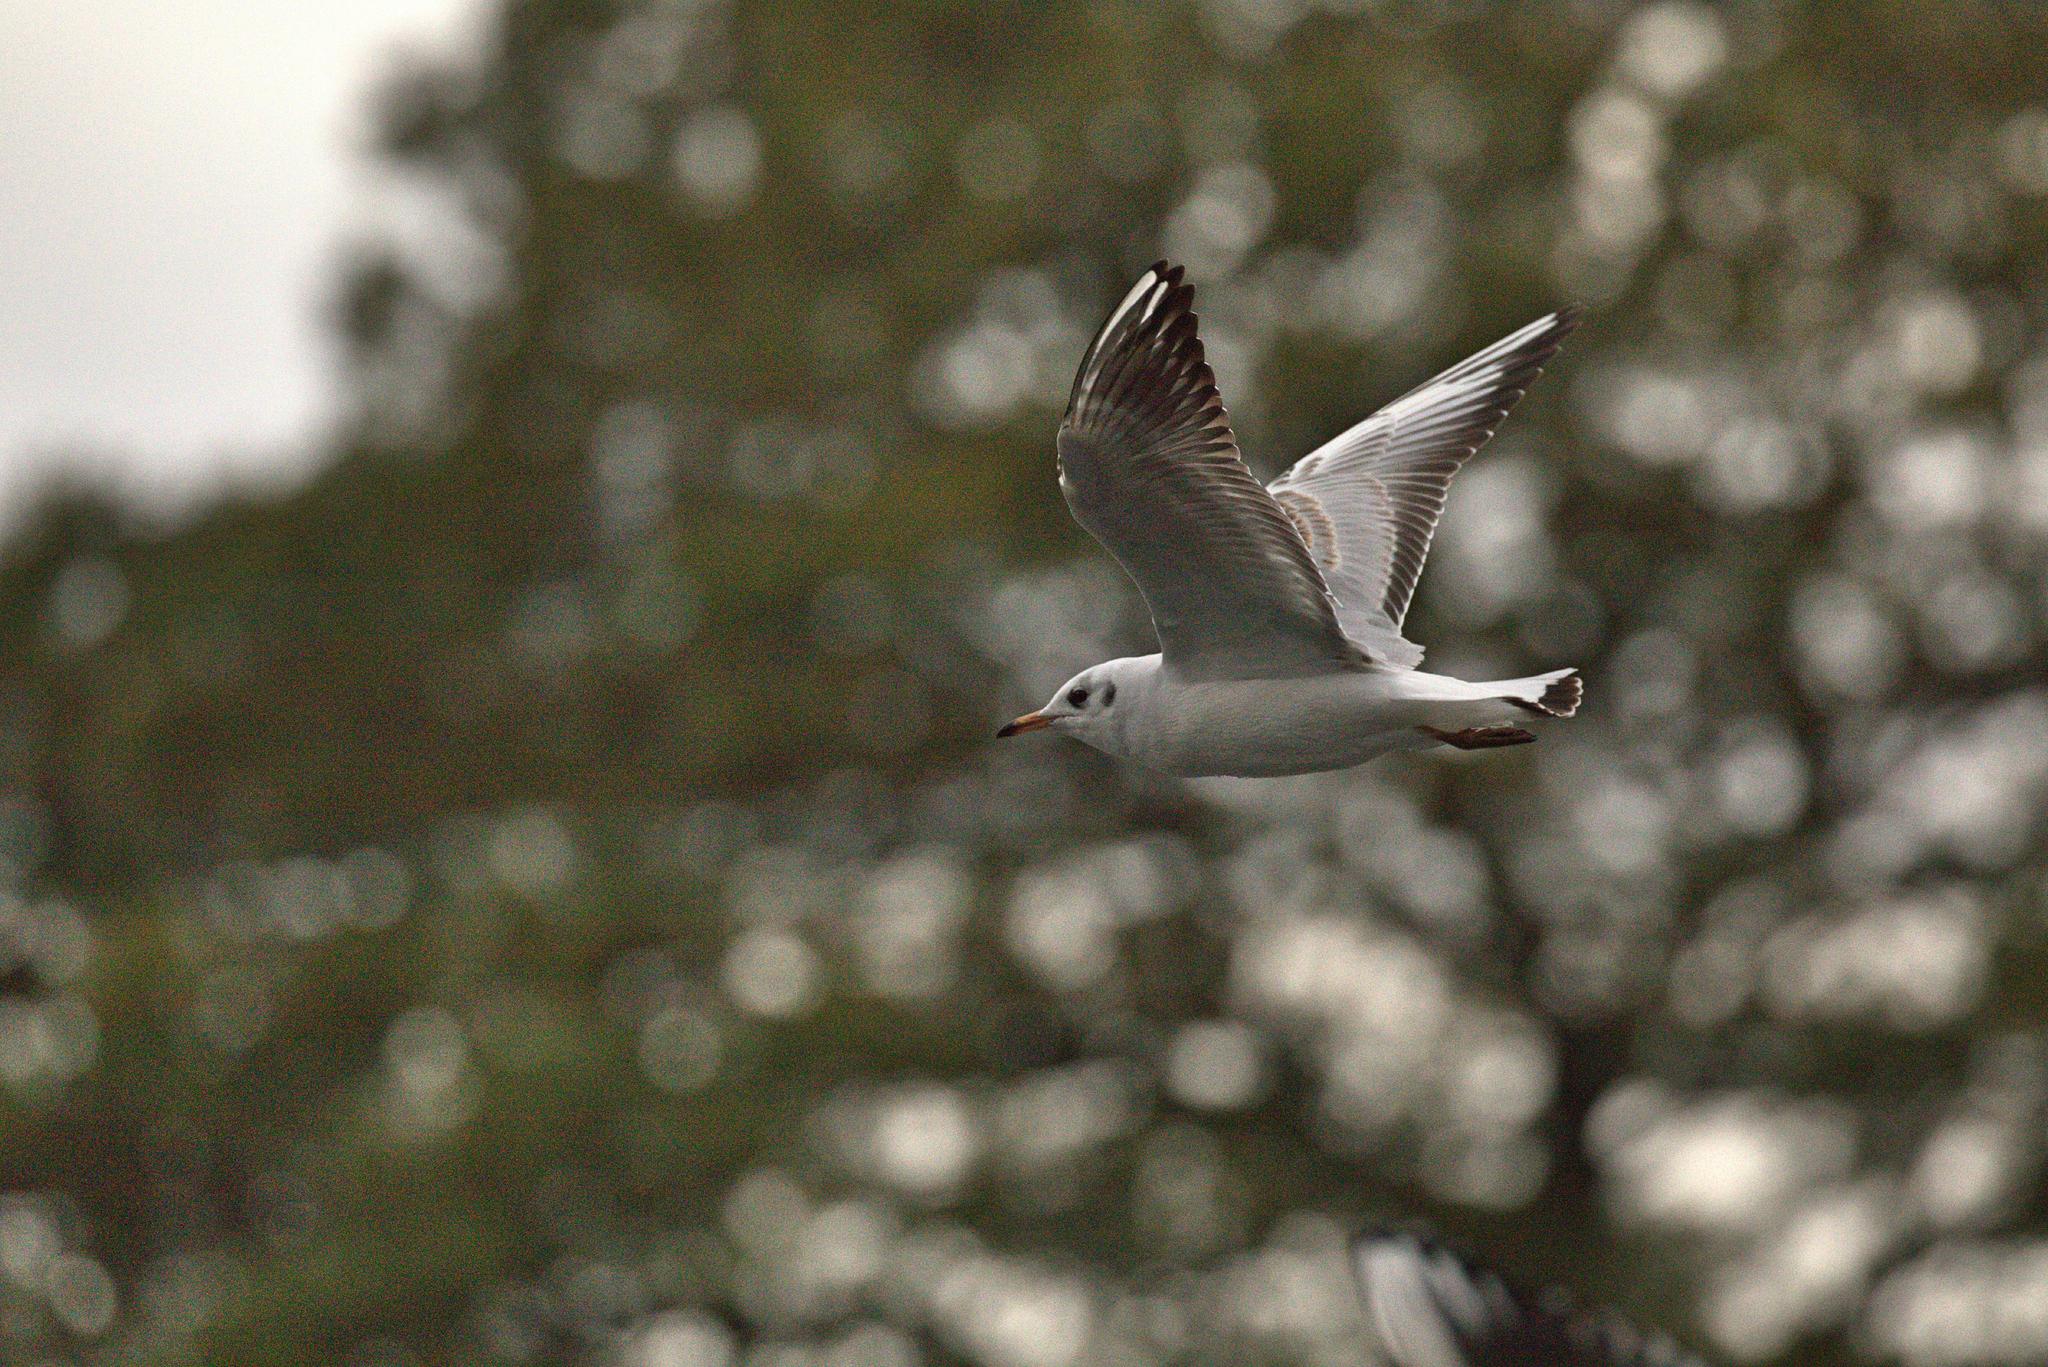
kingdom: Animalia
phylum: Chordata
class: Aves
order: Charadriiformes
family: Laridae
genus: Chroicocephalus
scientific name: Chroicocephalus ridibundus
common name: Black-headed gull
